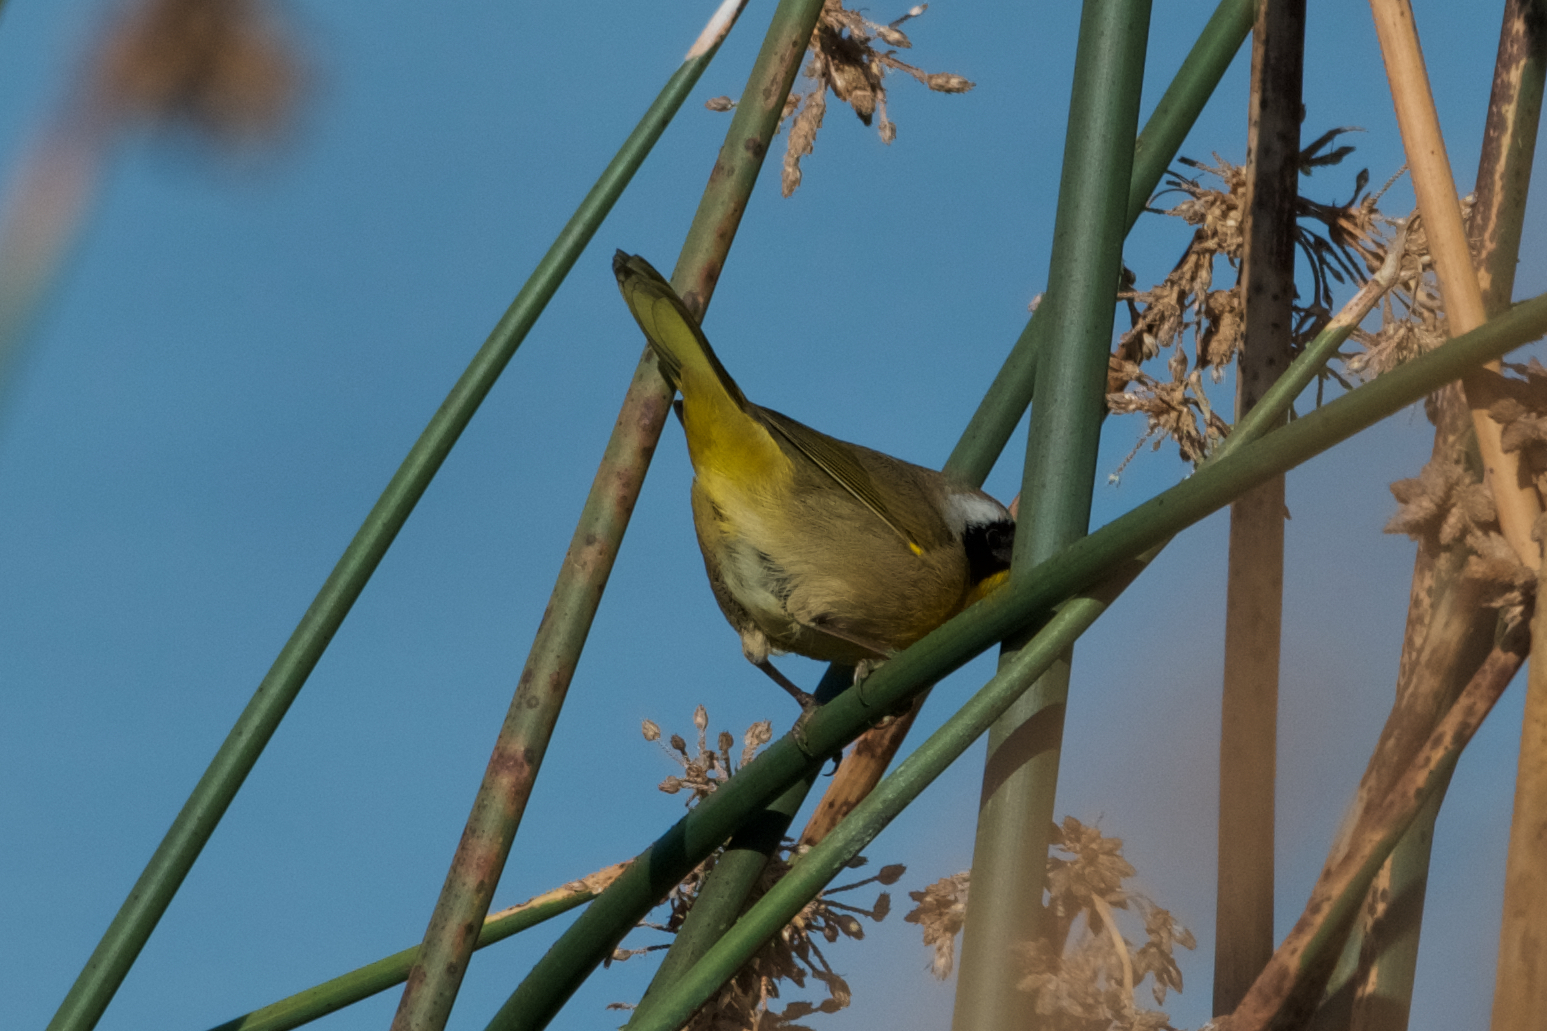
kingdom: Animalia
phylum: Chordata
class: Aves
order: Passeriformes
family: Parulidae
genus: Geothlypis
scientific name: Geothlypis trichas
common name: Common yellowthroat
